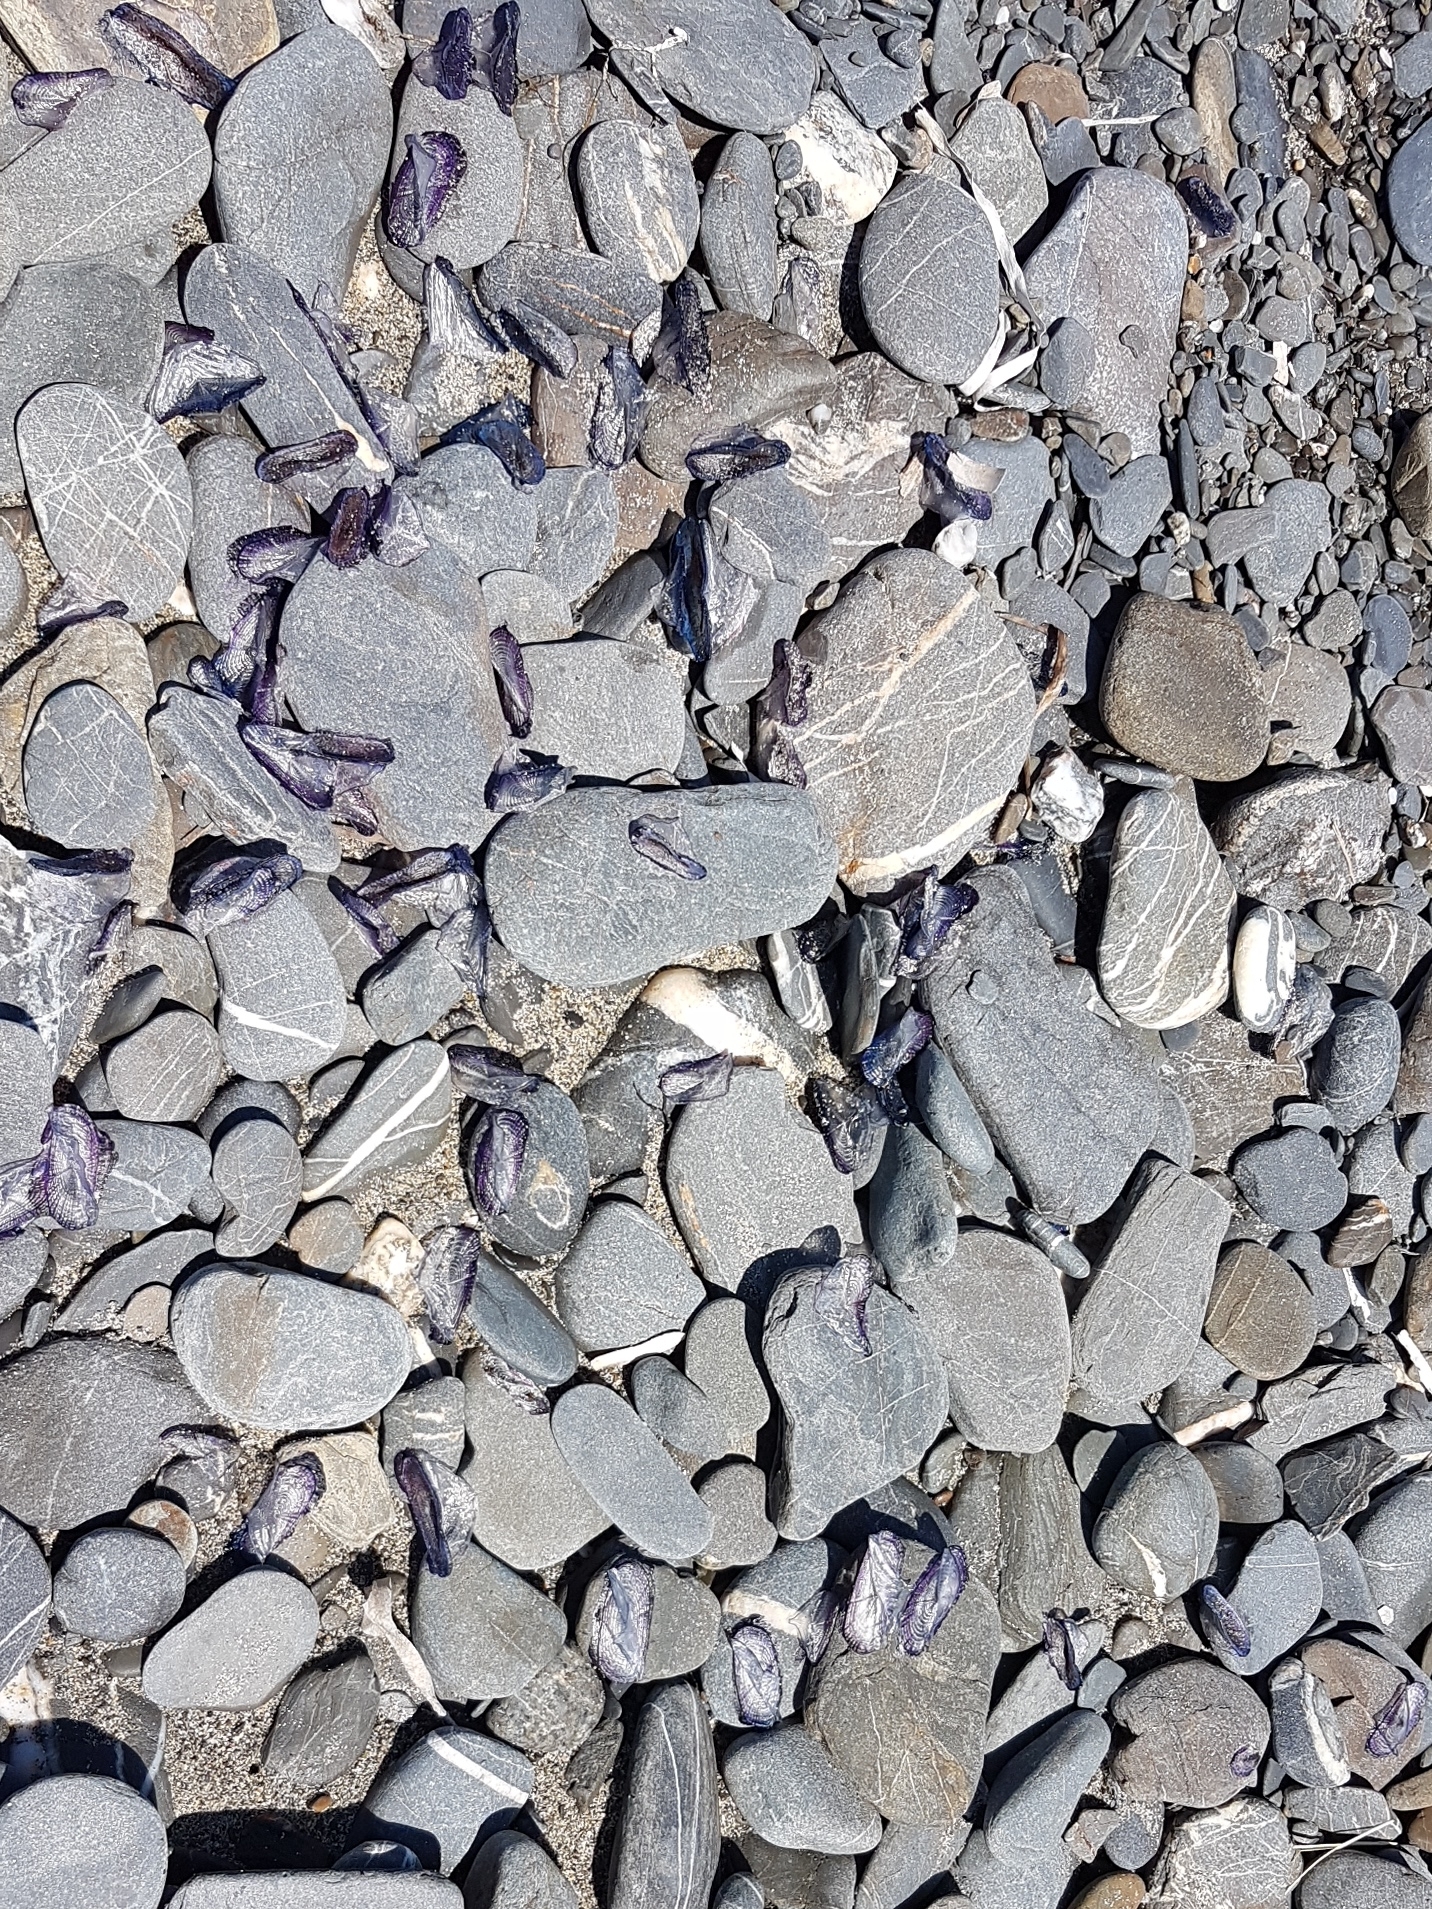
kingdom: Animalia
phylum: Cnidaria
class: Hydrozoa
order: Anthoathecata
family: Porpitidae
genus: Velella
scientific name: Velella velella
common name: By-the-wind-sailor
